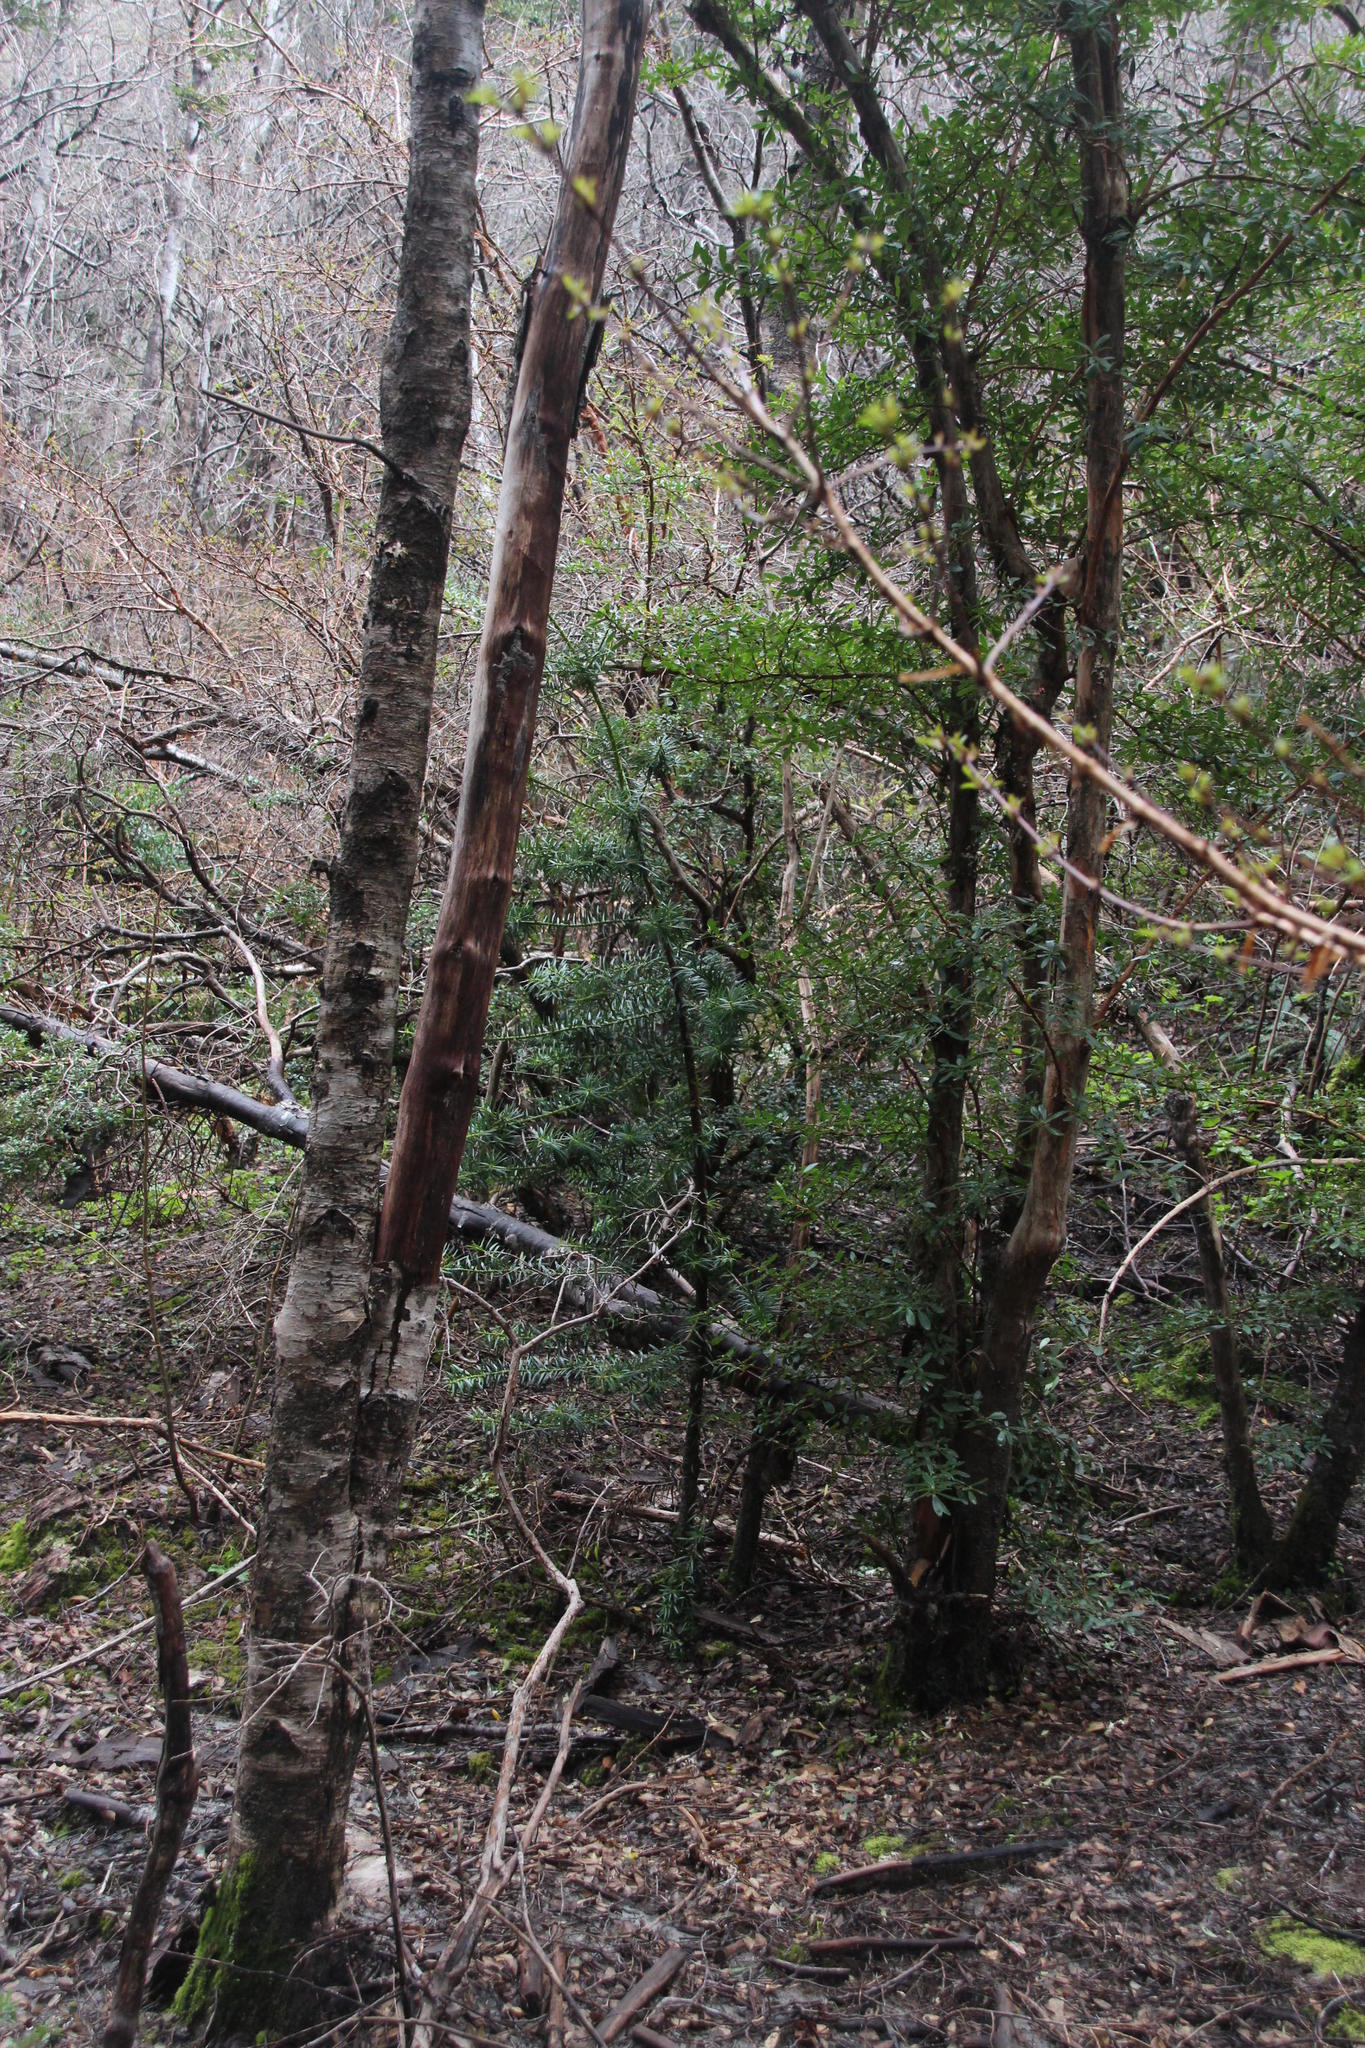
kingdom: Plantae
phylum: Tracheophyta
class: Pinopsida
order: Pinales
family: Podocarpaceae
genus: Podocarpus
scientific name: Podocarpus nubigenus
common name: Cloud podocarp
